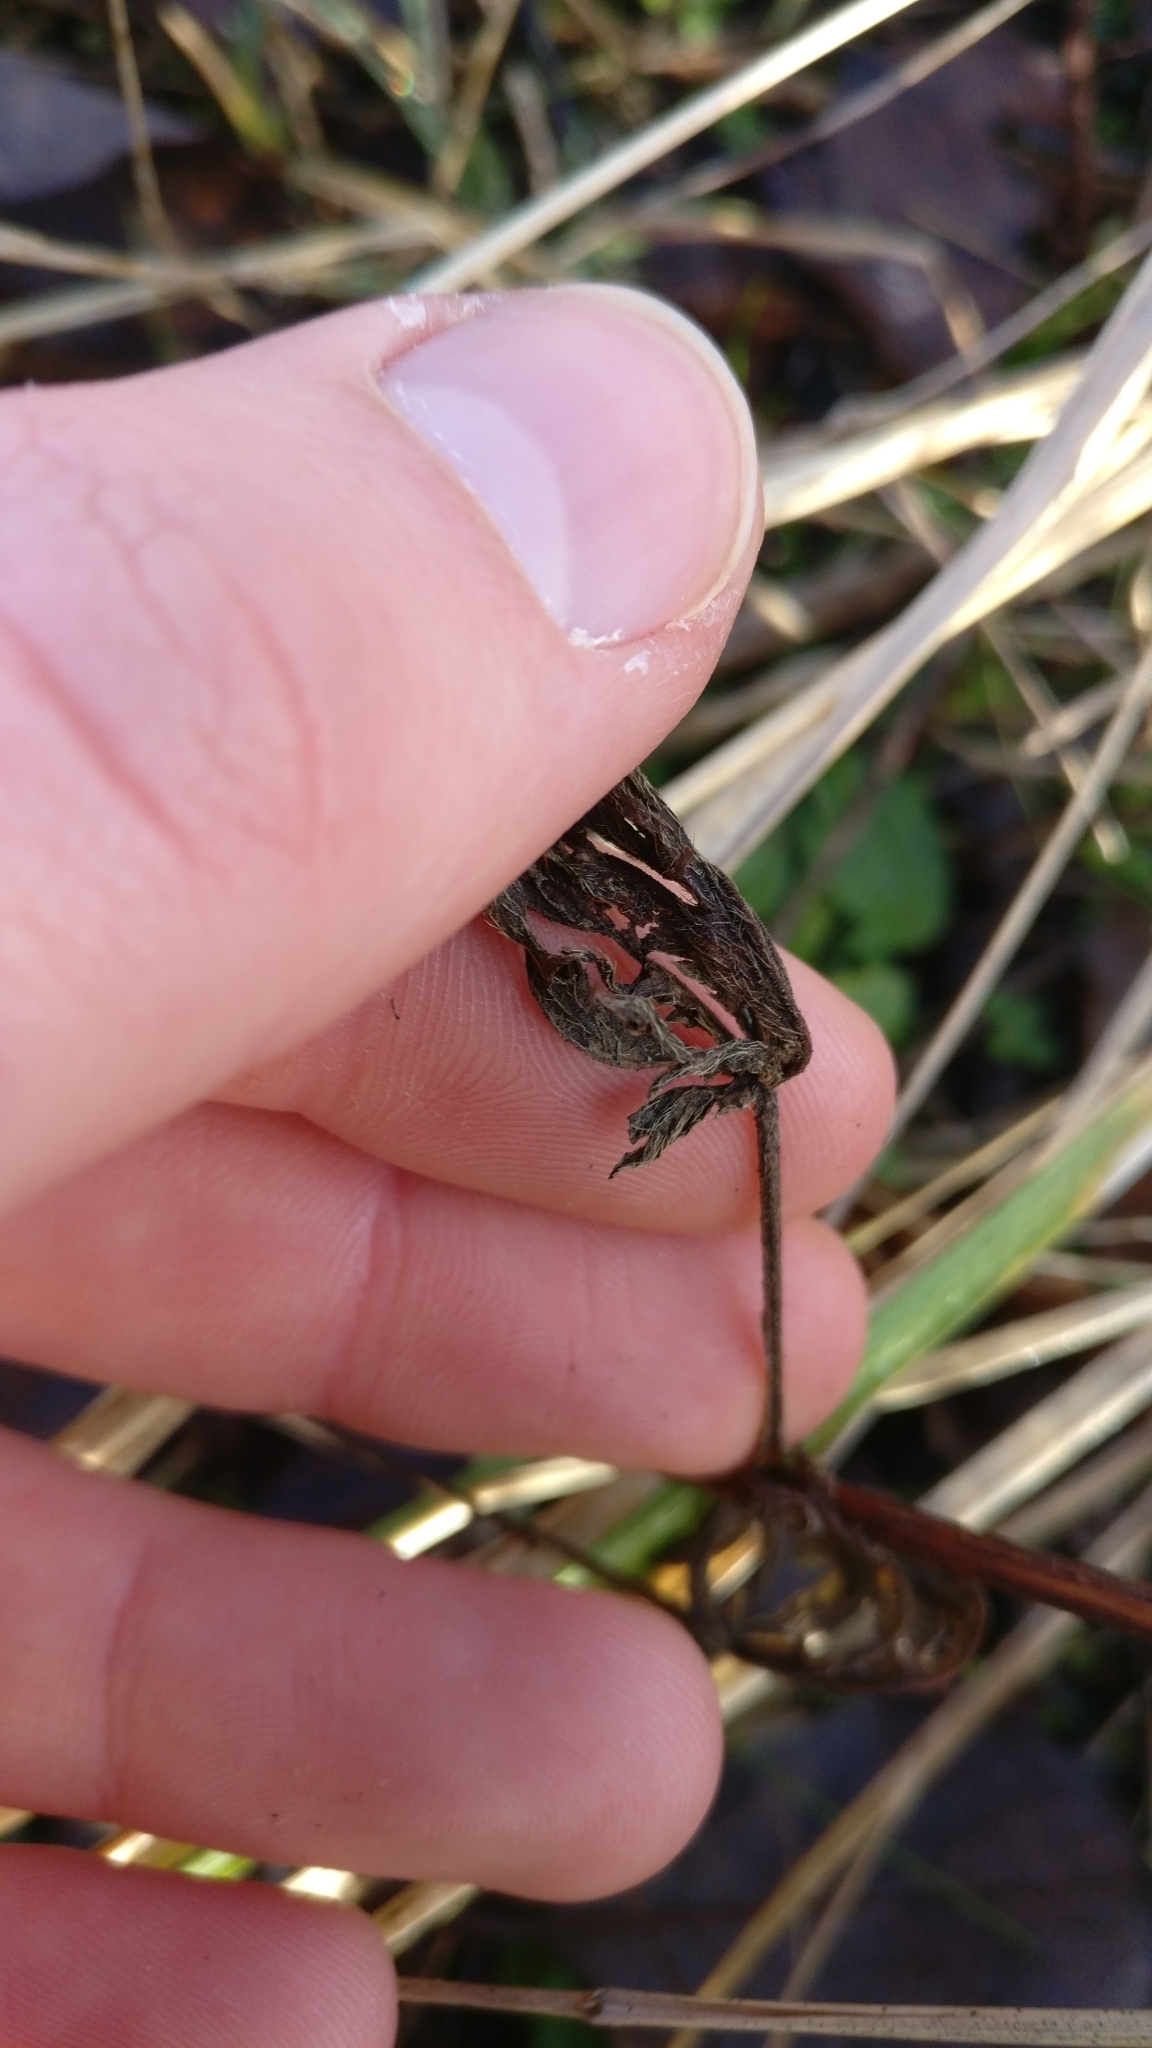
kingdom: Plantae
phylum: Tracheophyta
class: Magnoliopsida
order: Rosales
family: Rosaceae
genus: Potentilla
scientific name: Potentilla
